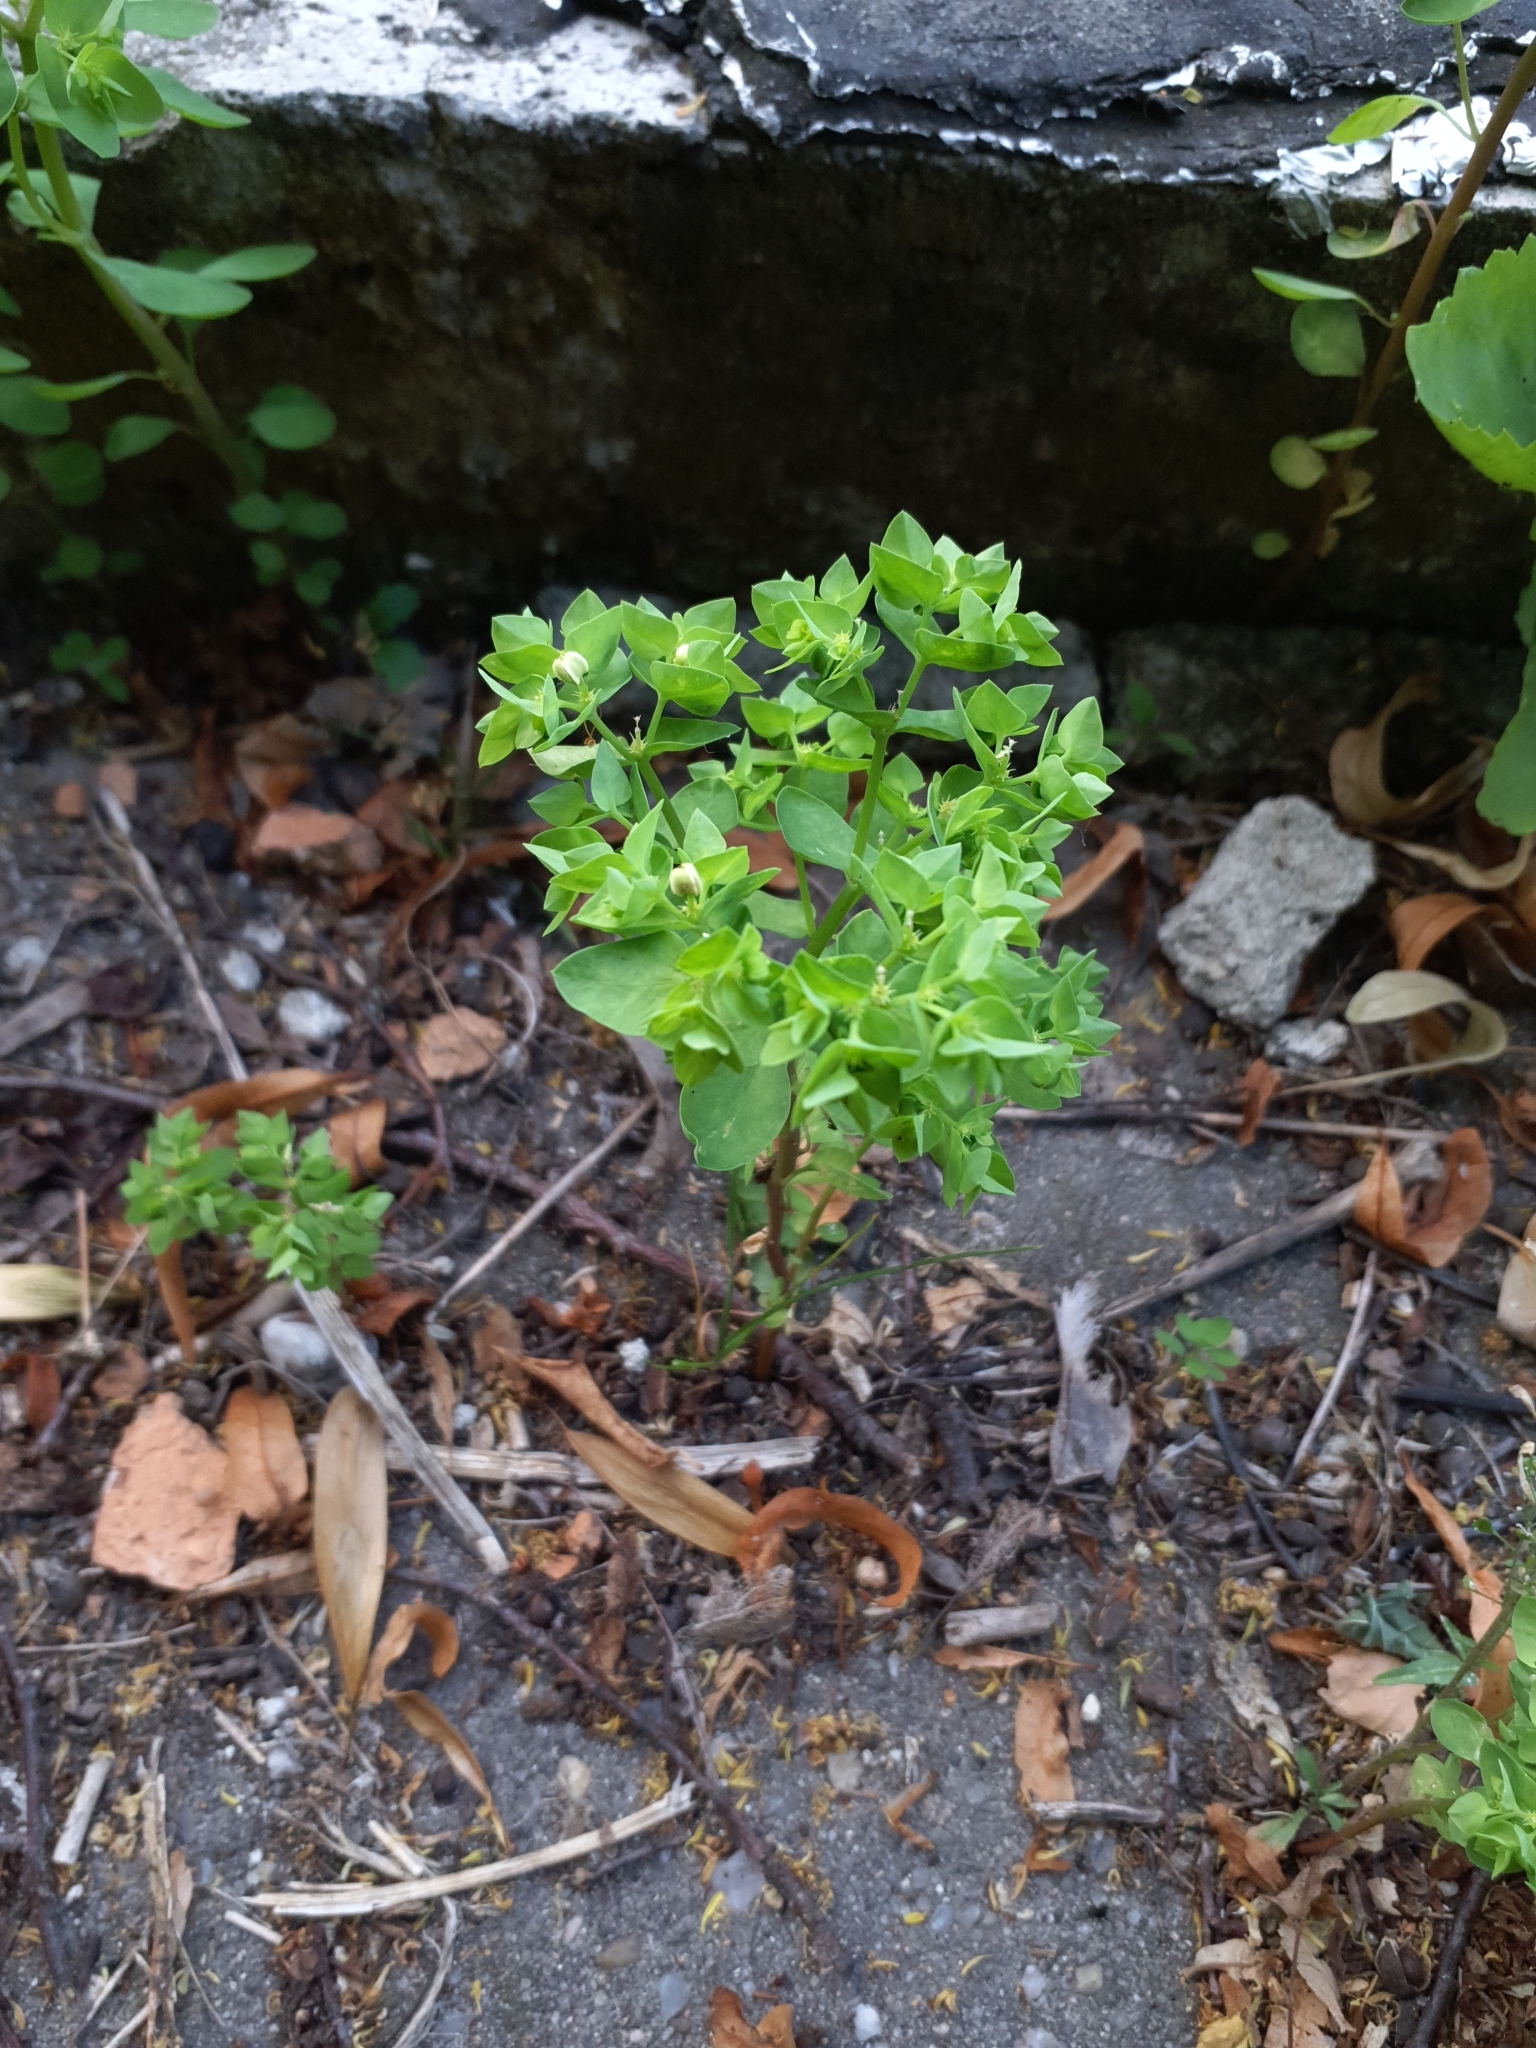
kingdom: Plantae
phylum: Tracheophyta
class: Magnoliopsida
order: Malpighiales
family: Euphorbiaceae
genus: Euphorbia
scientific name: Euphorbia peplus
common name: Petty spurge
